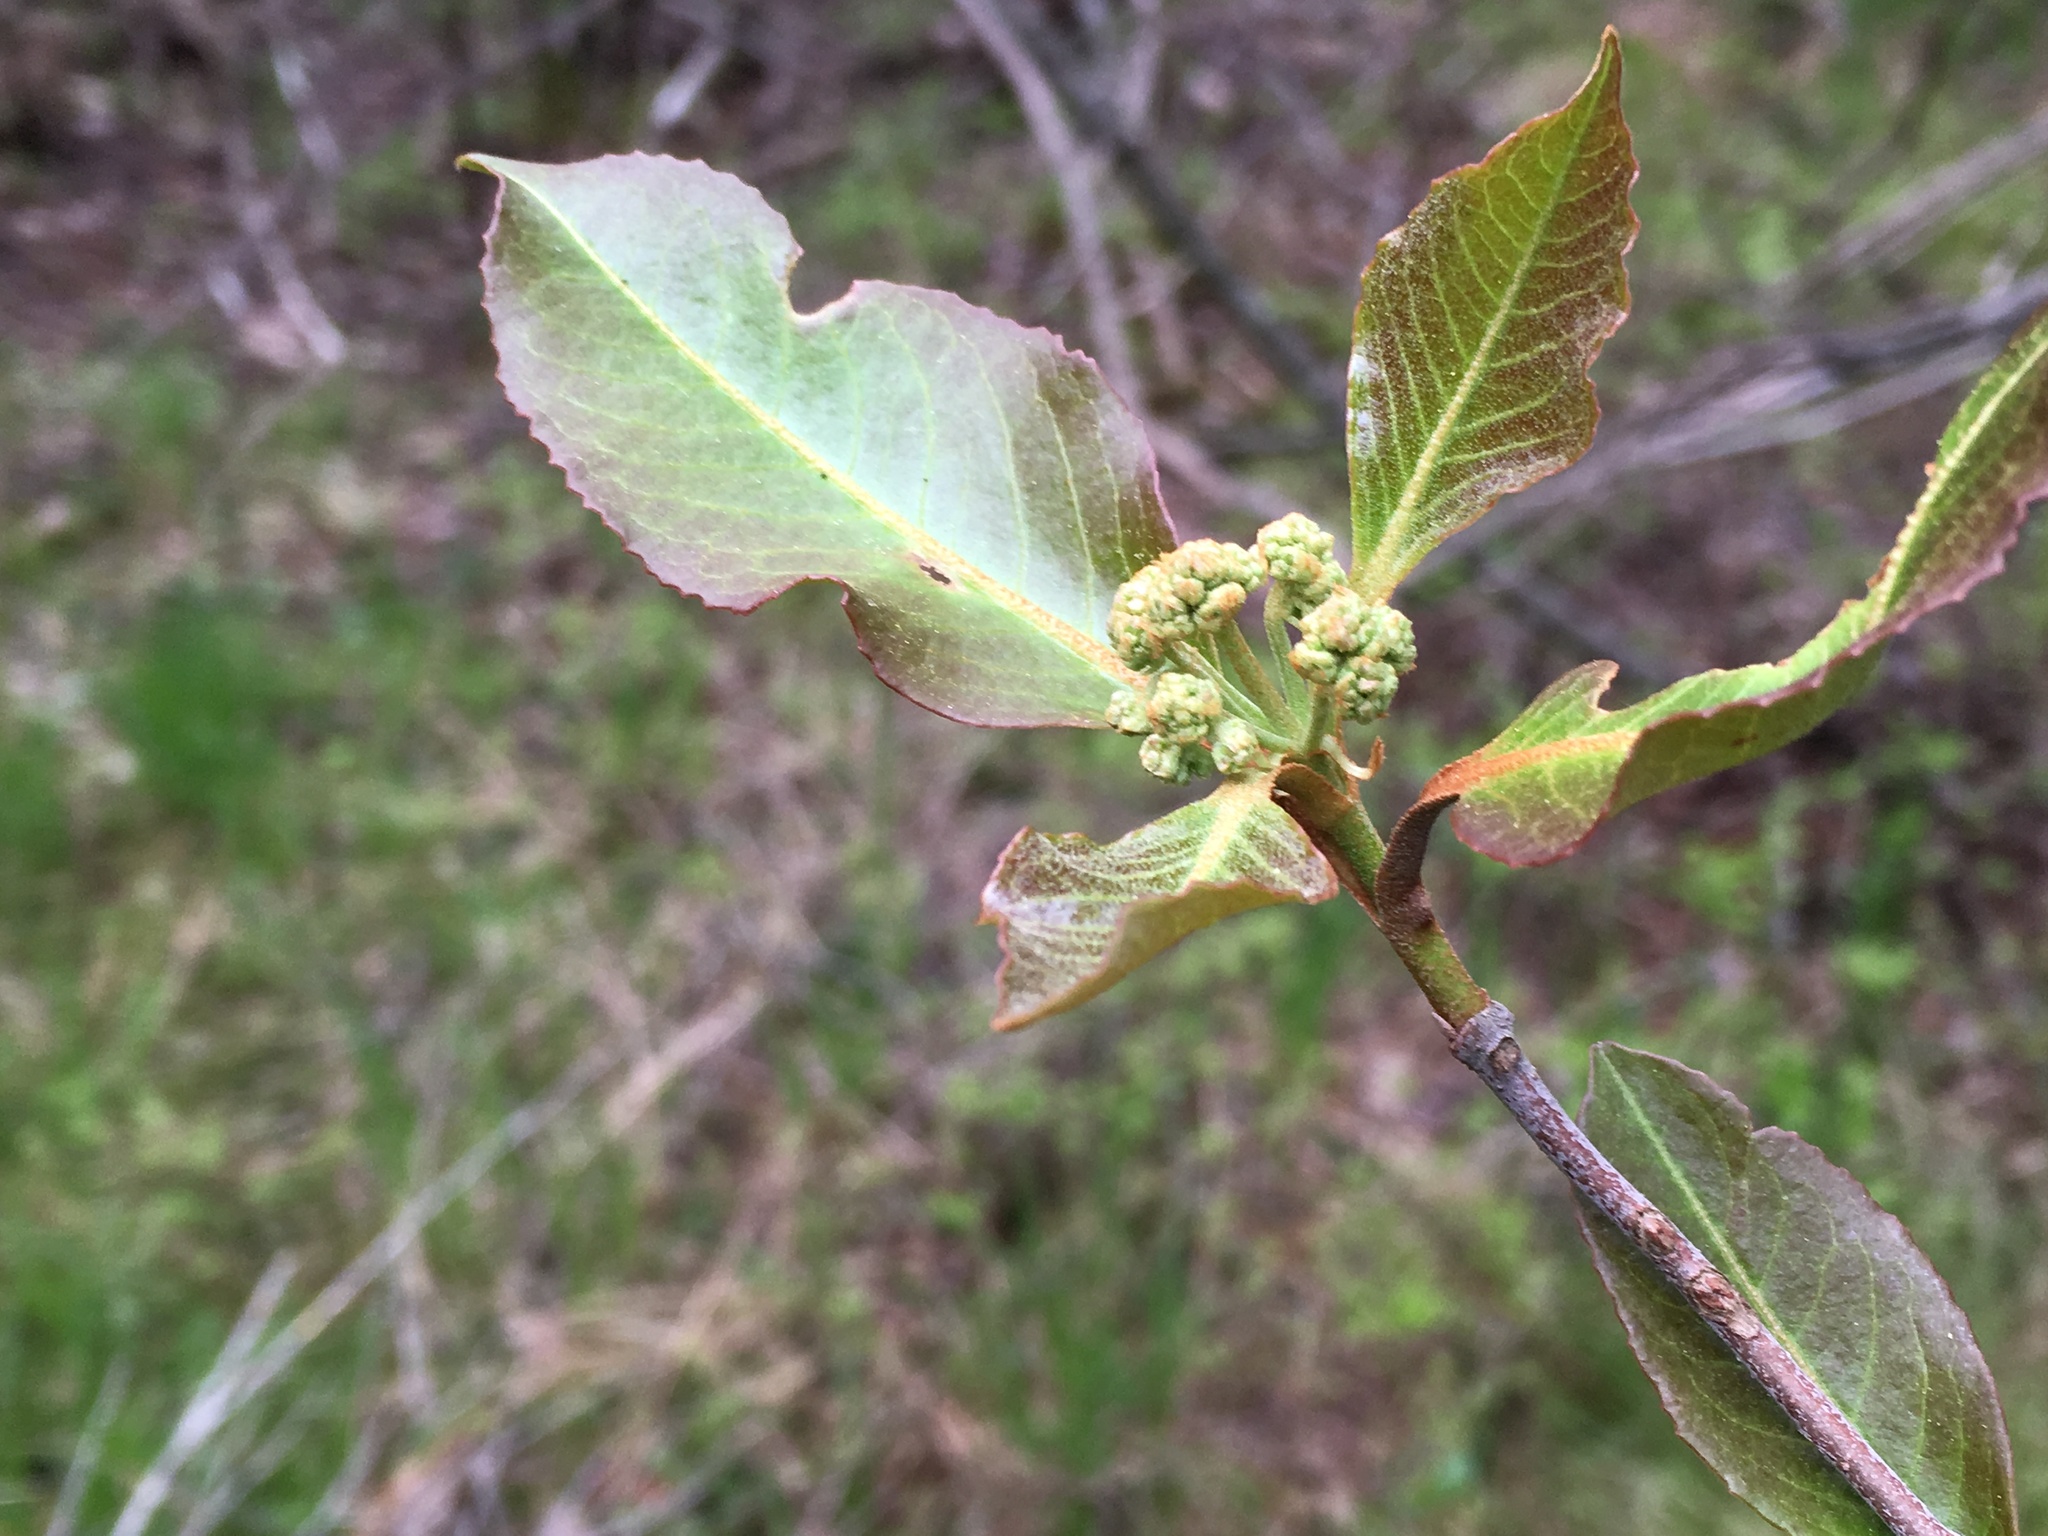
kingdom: Plantae
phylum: Tracheophyta
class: Magnoliopsida
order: Dipsacales
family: Viburnaceae
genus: Viburnum
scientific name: Viburnum cassinoides
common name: Swamp haw
